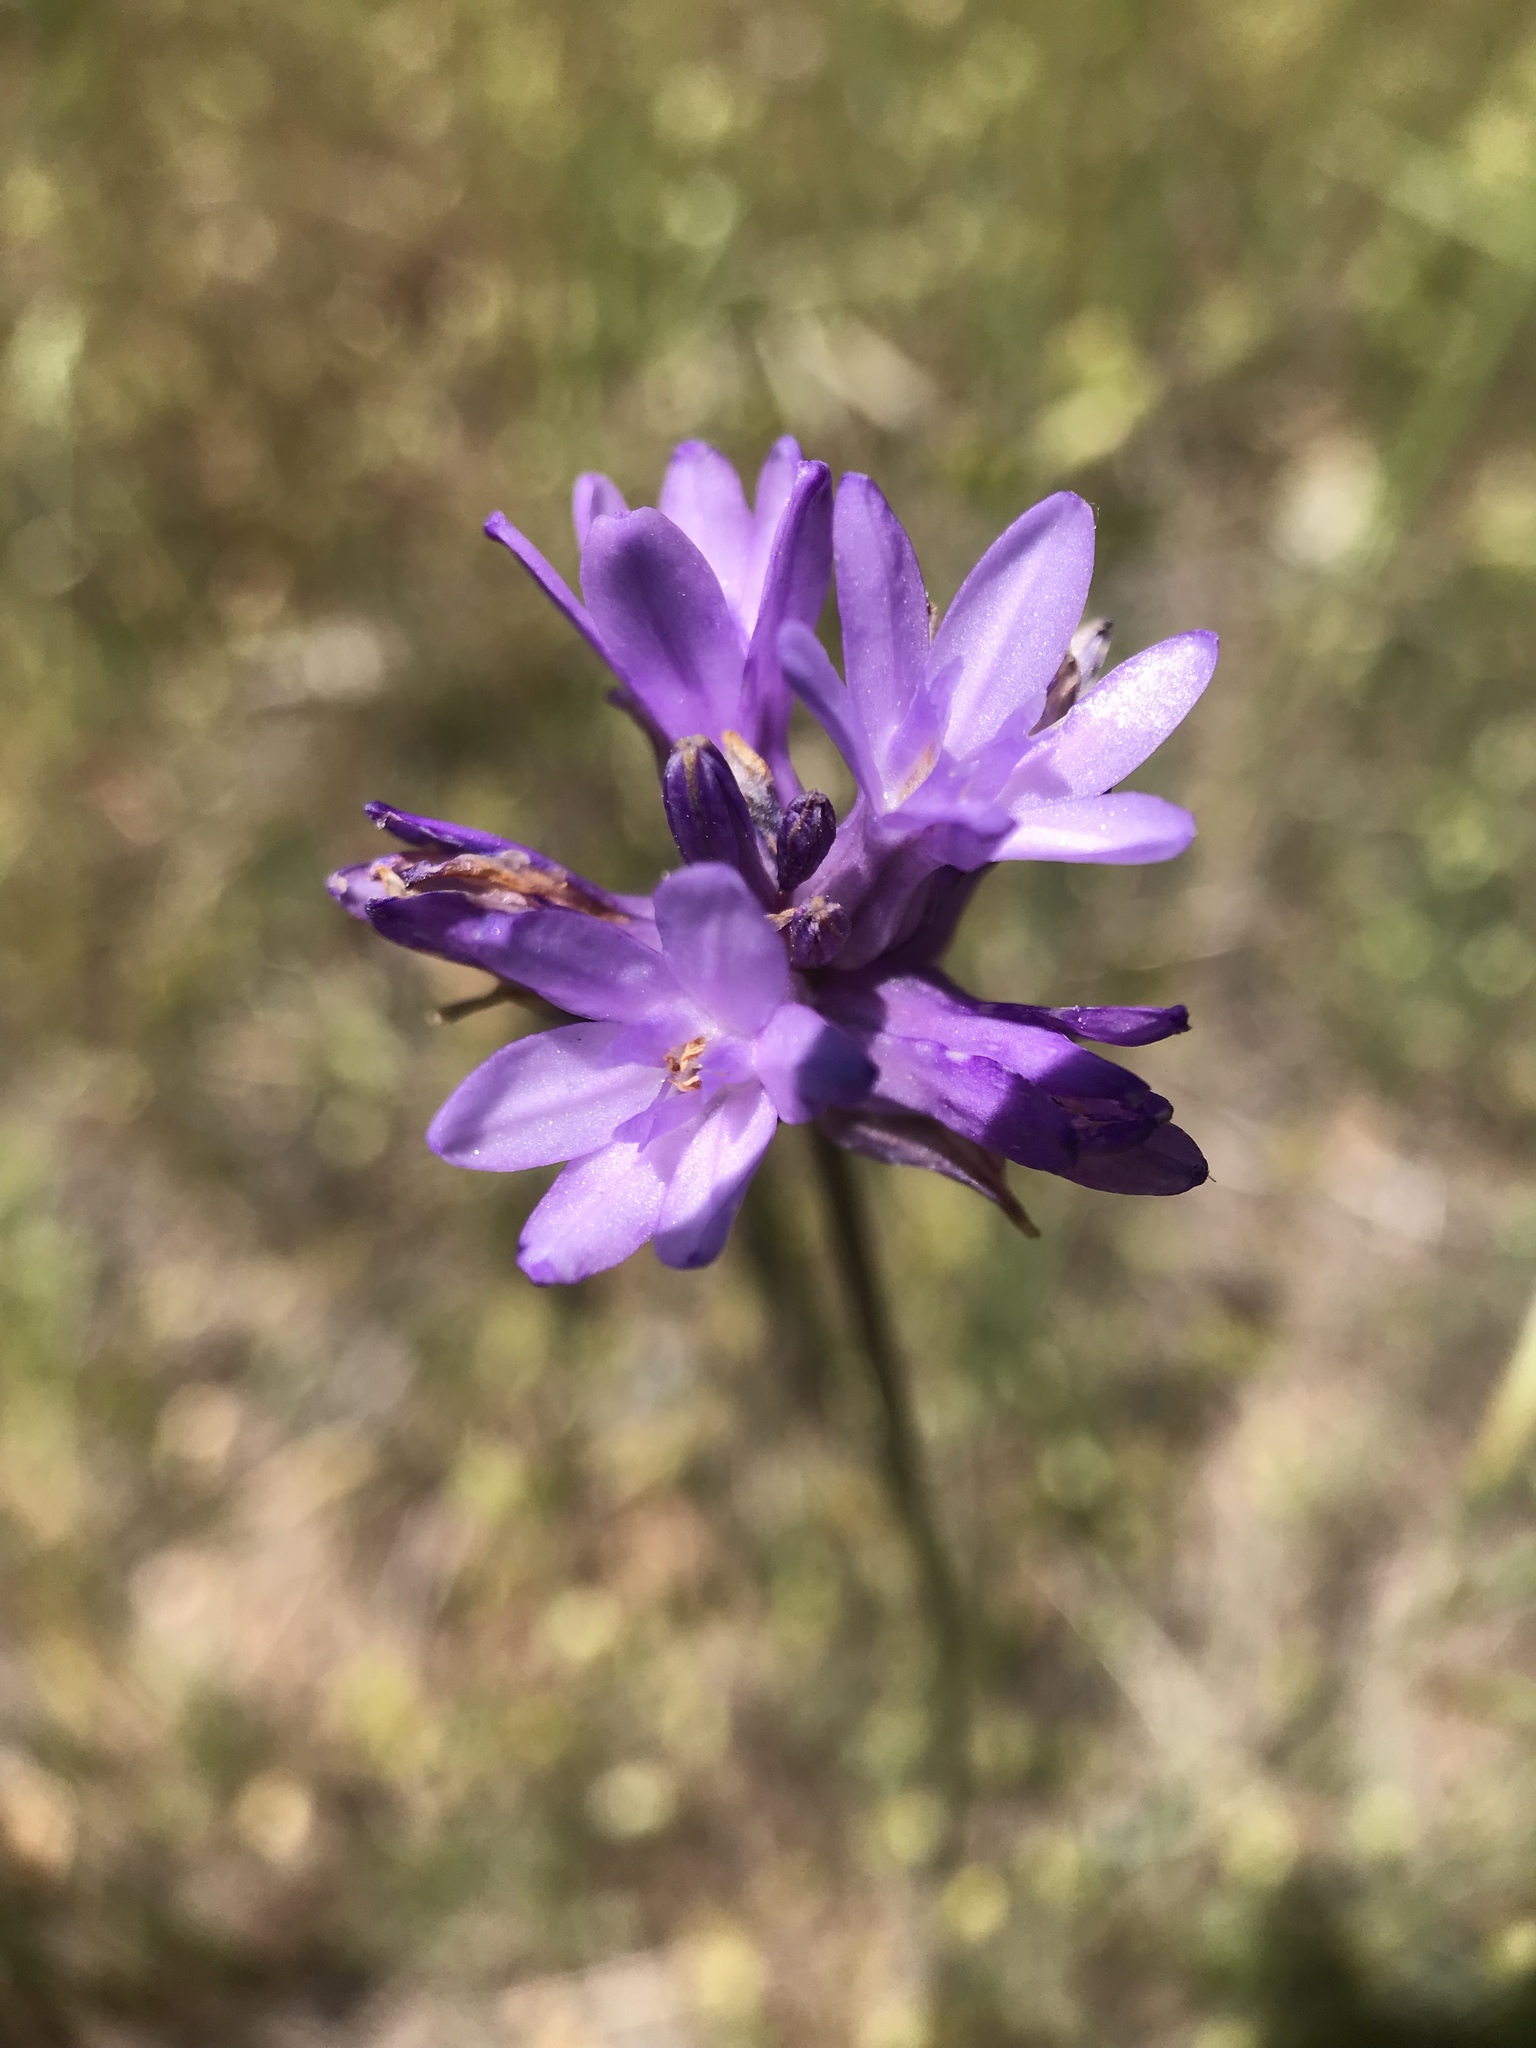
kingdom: Plantae
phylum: Tracheophyta
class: Liliopsida
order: Asparagales
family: Asparagaceae
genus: Dichelostemma
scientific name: Dichelostemma congestum
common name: Fork-tooth ookow
